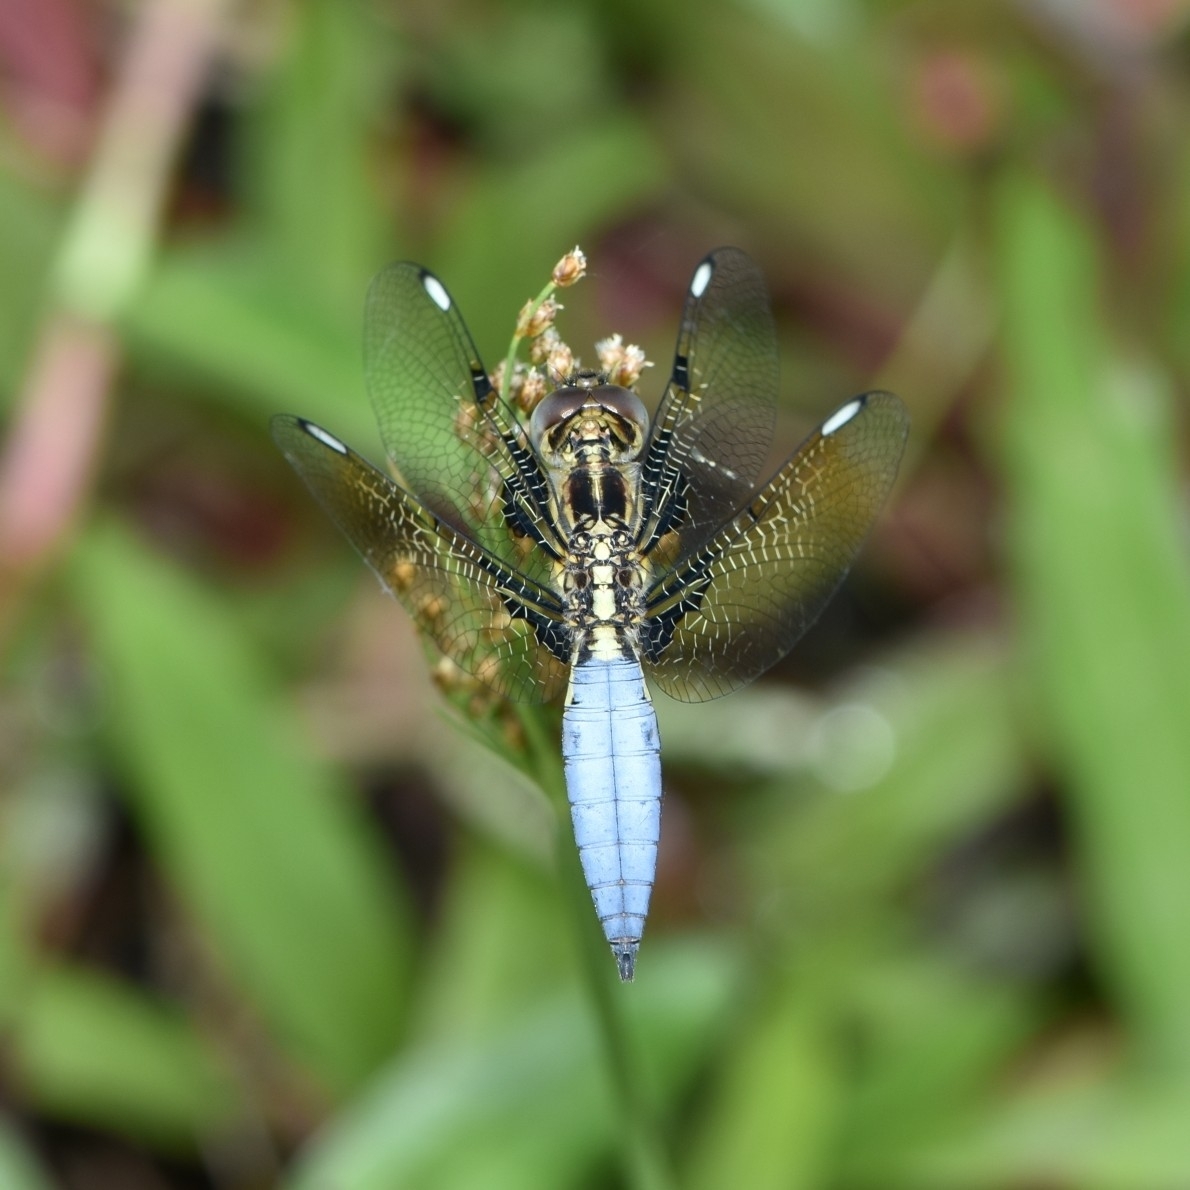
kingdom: Animalia
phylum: Arthropoda
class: Insecta
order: Odonata
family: Libellulidae
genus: Palpopleura
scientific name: Palpopleura sexmaculata
